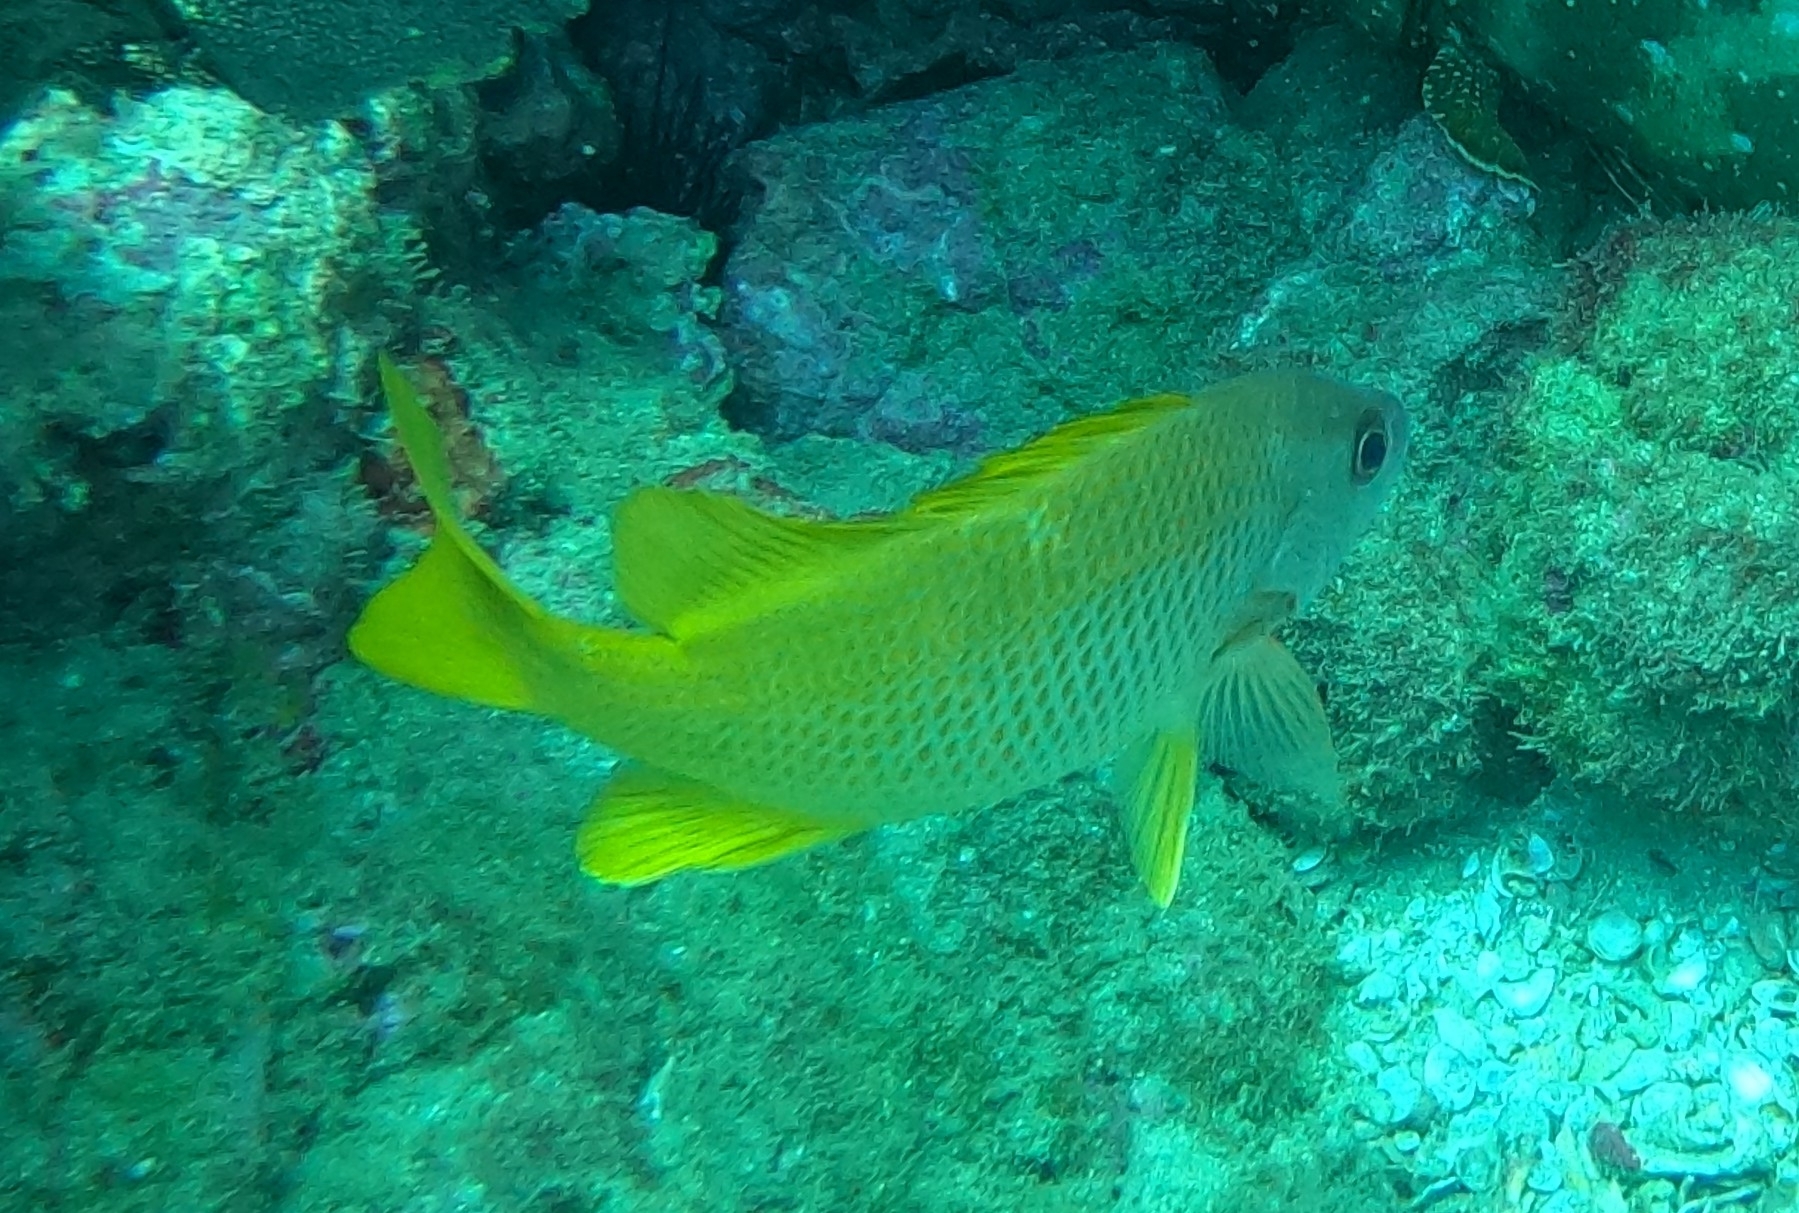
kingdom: Animalia
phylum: Chordata
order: Perciformes
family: Lutjanidae
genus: Lutjanus
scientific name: Lutjanus argentiventris
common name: Yellow snapper
